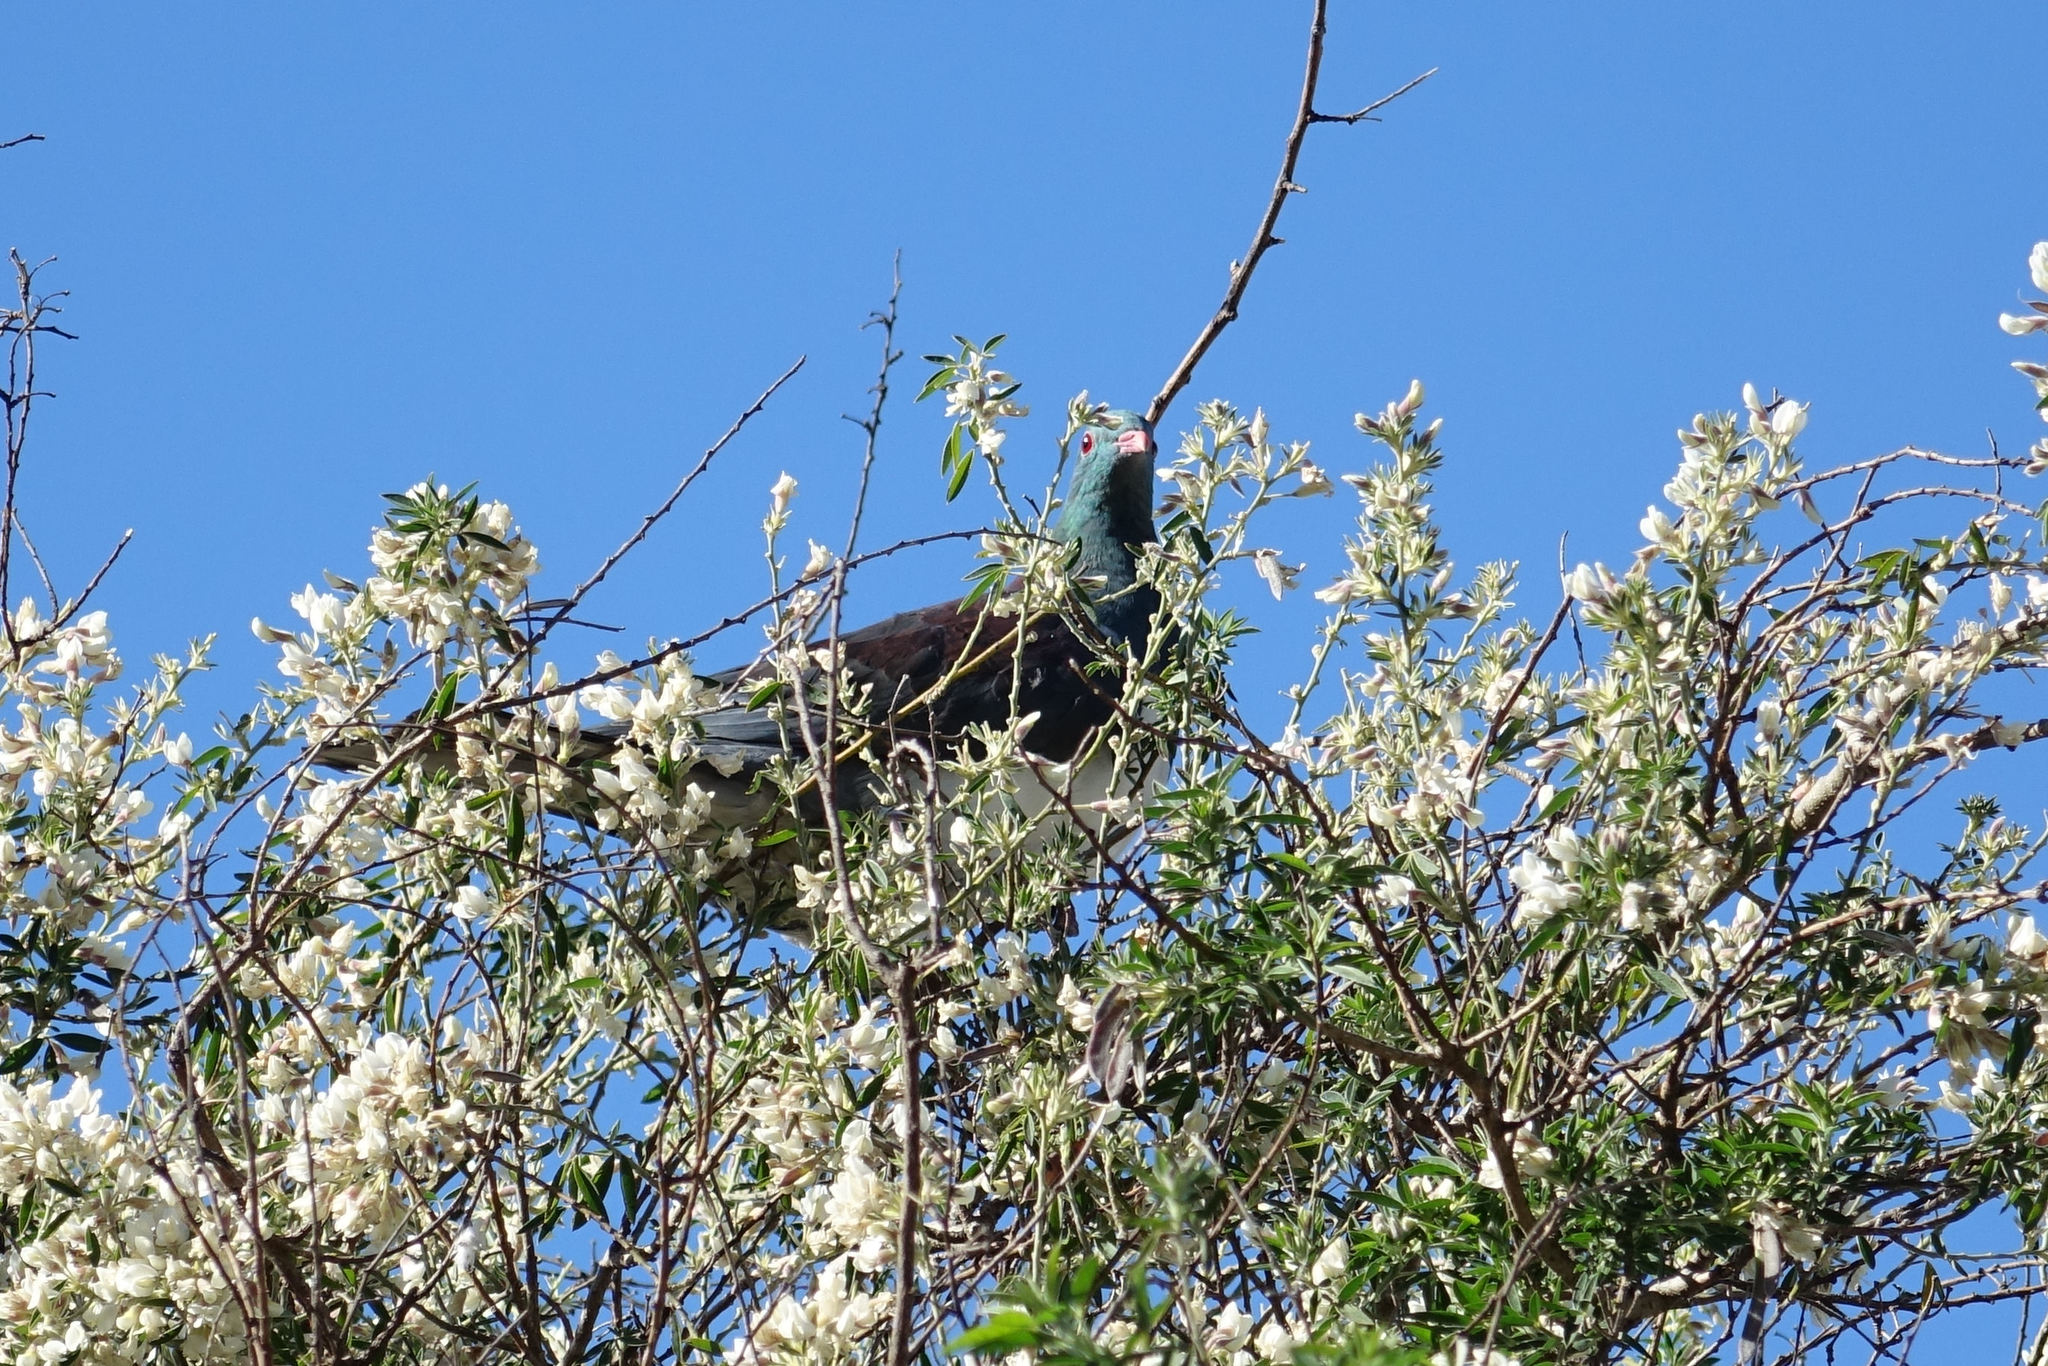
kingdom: Animalia
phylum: Chordata
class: Aves
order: Columbiformes
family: Columbidae
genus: Hemiphaga
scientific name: Hemiphaga novaeseelandiae
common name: New zealand pigeon
